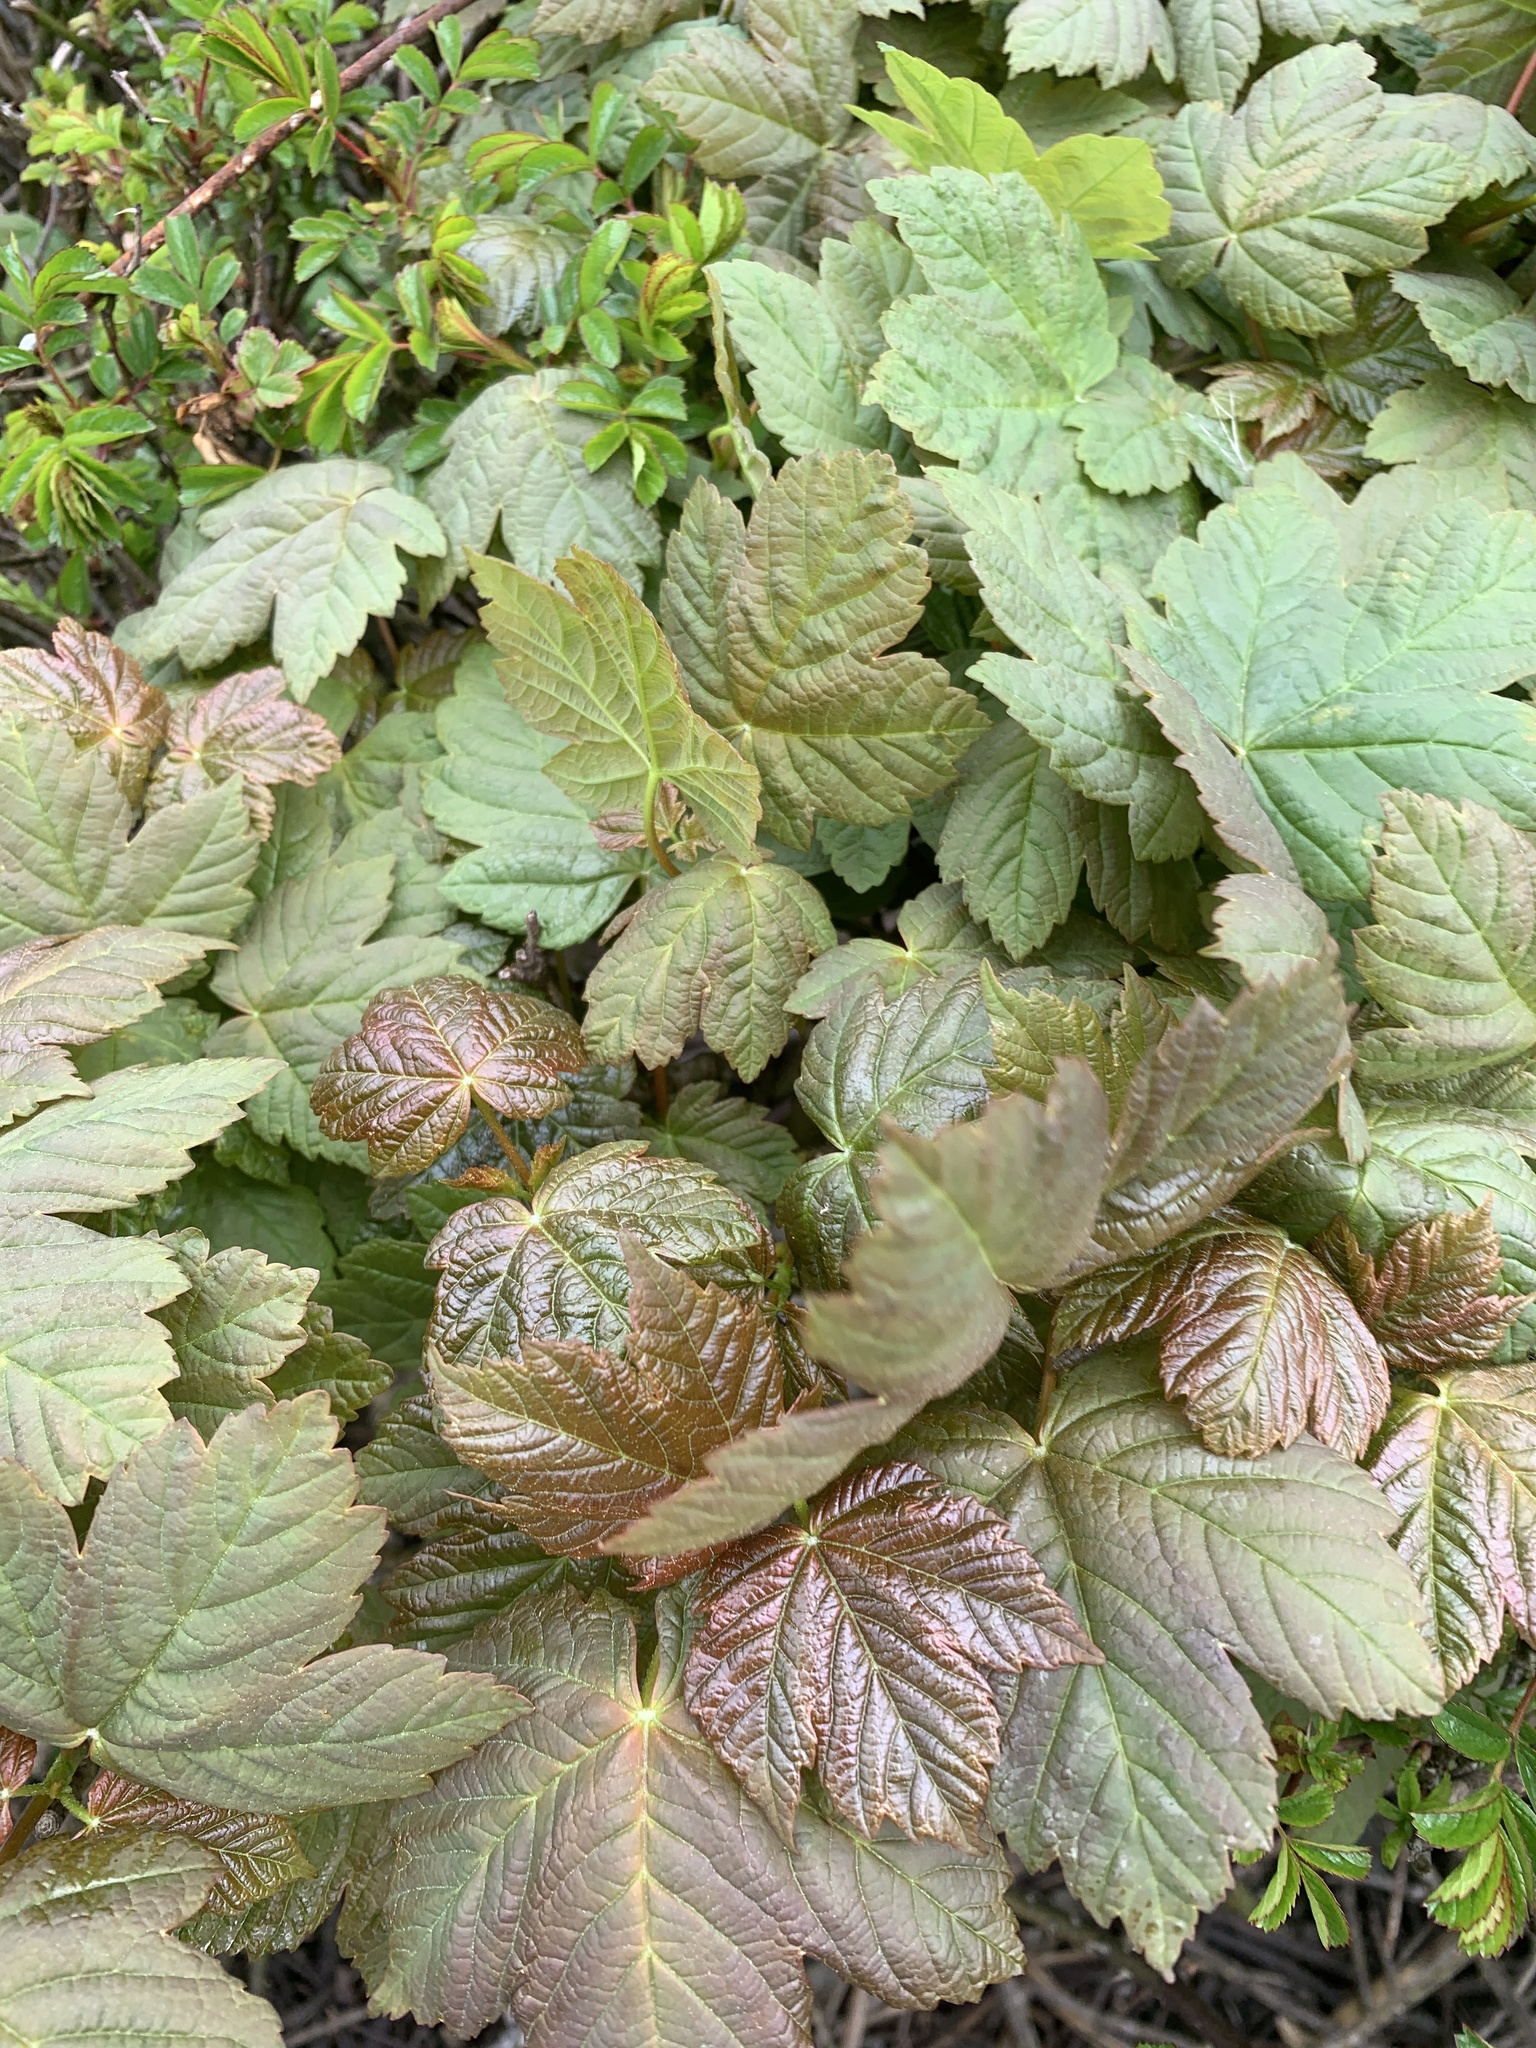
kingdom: Plantae
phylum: Tracheophyta
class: Magnoliopsida
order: Sapindales
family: Sapindaceae
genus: Acer
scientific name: Acer pseudoplatanus
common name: Sycamore
